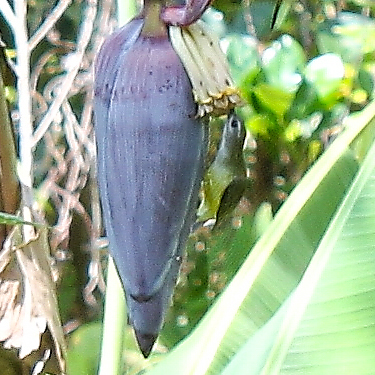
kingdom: Animalia
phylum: Chordata
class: Aves
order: Passeriformes
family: Nectariniidae
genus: Arachnothera
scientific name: Arachnothera longirostra
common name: Little spiderhunter
